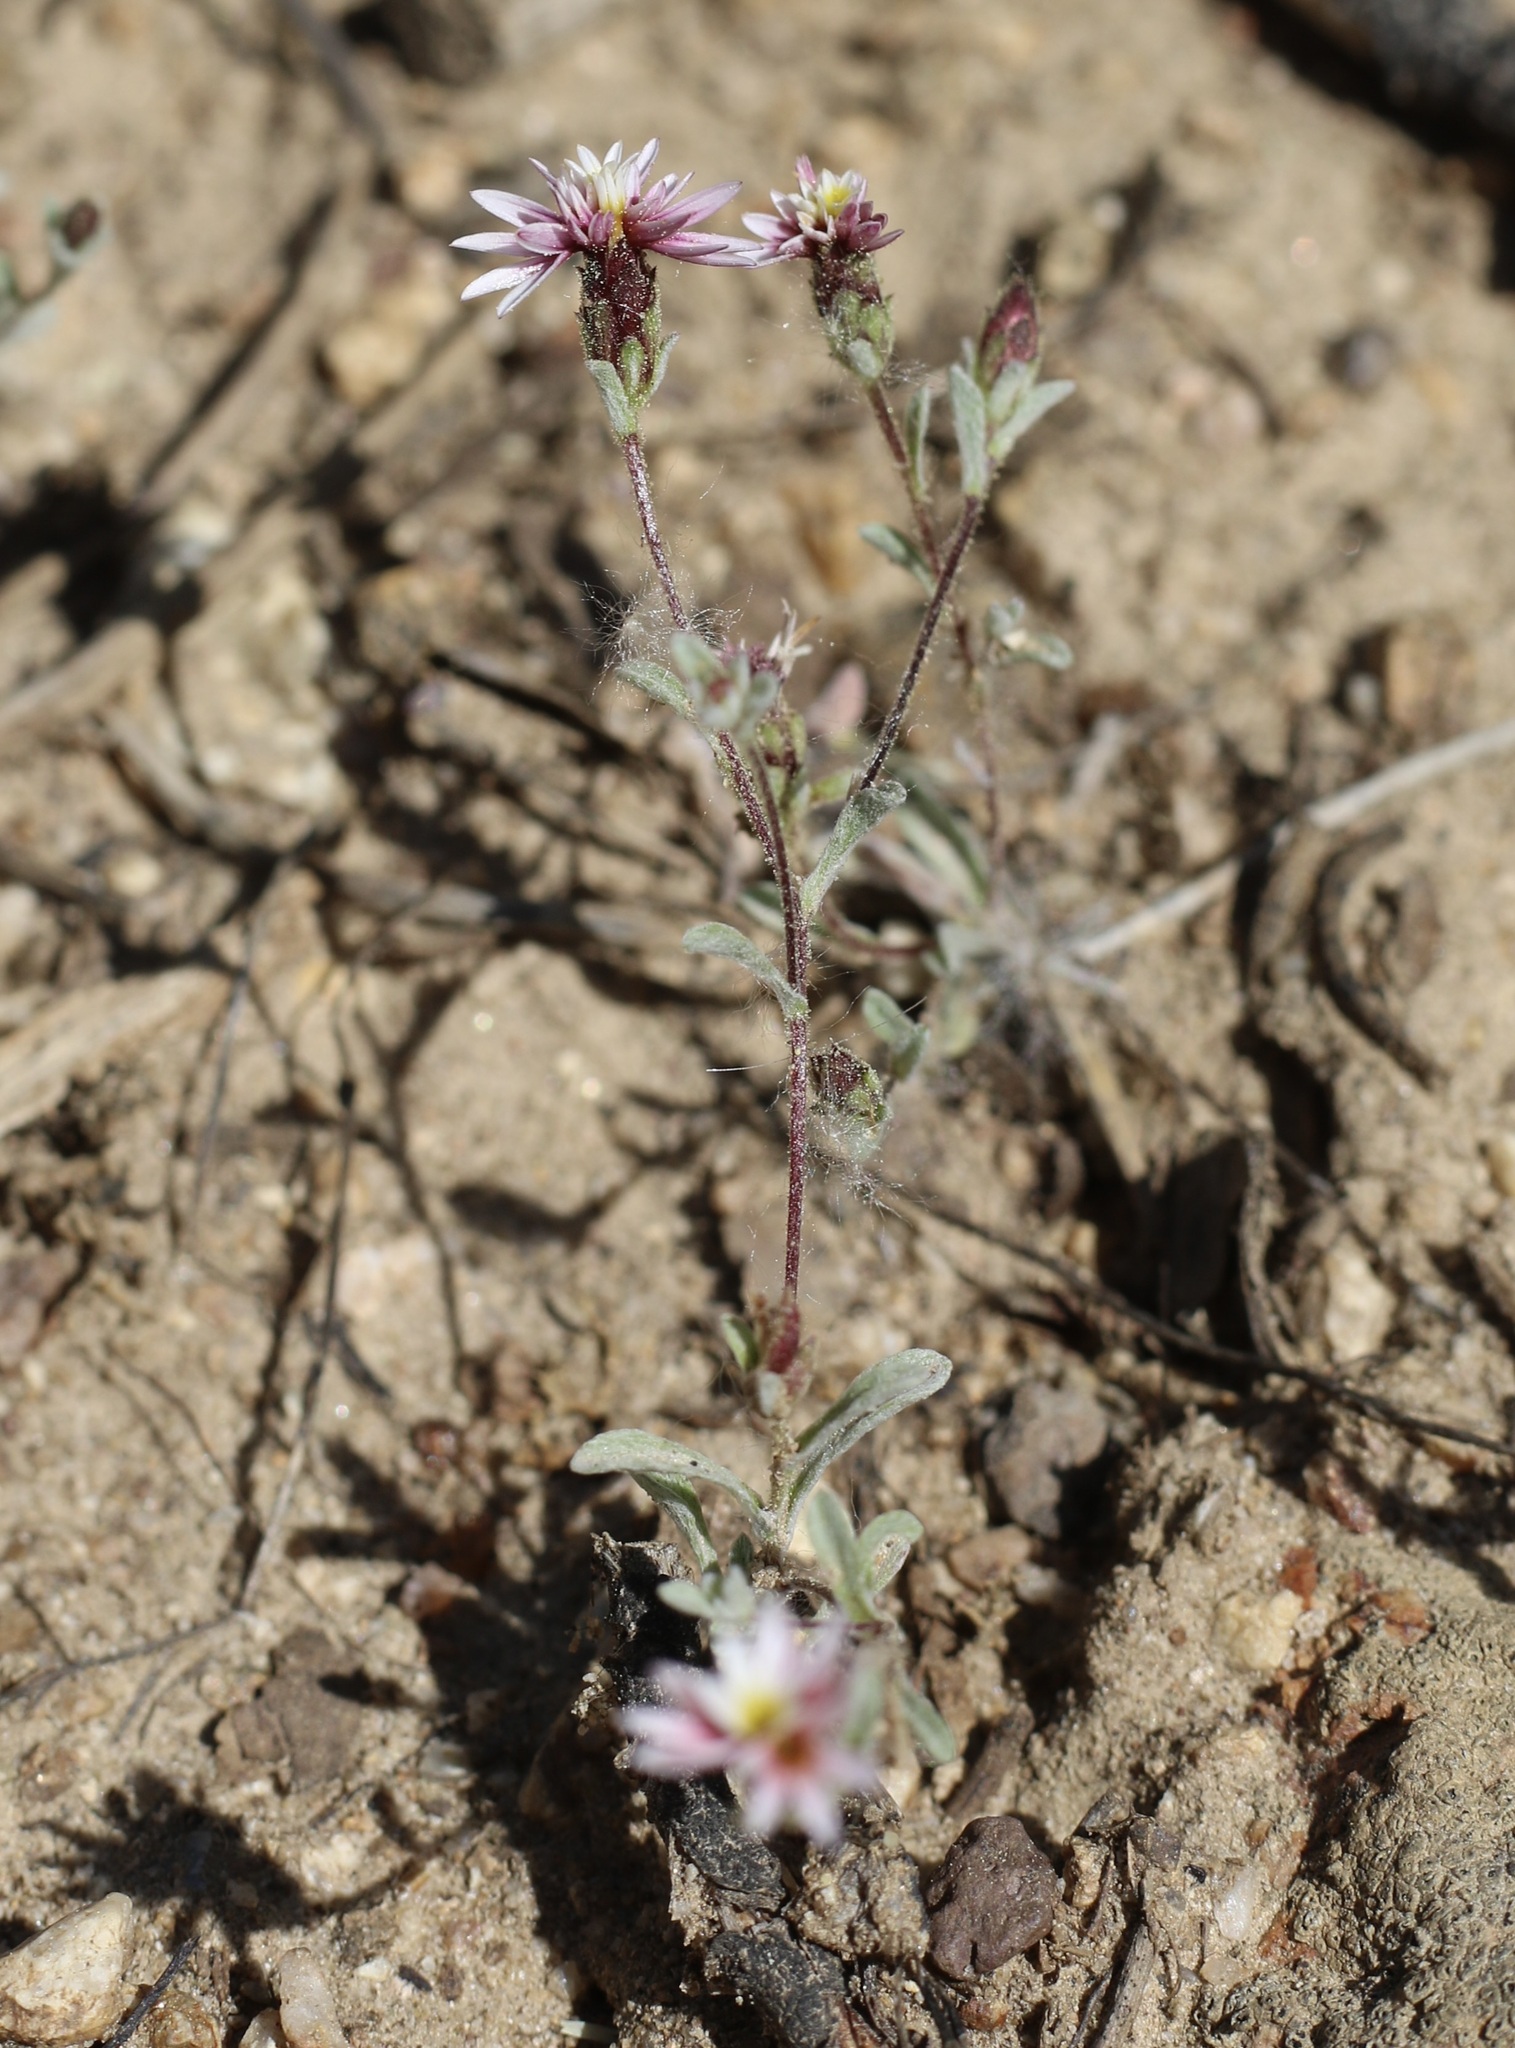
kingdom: Plantae
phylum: Tracheophyta
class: Magnoliopsida
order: Asterales
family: Asteraceae
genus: Lessingia
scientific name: Lessingia tenuis
